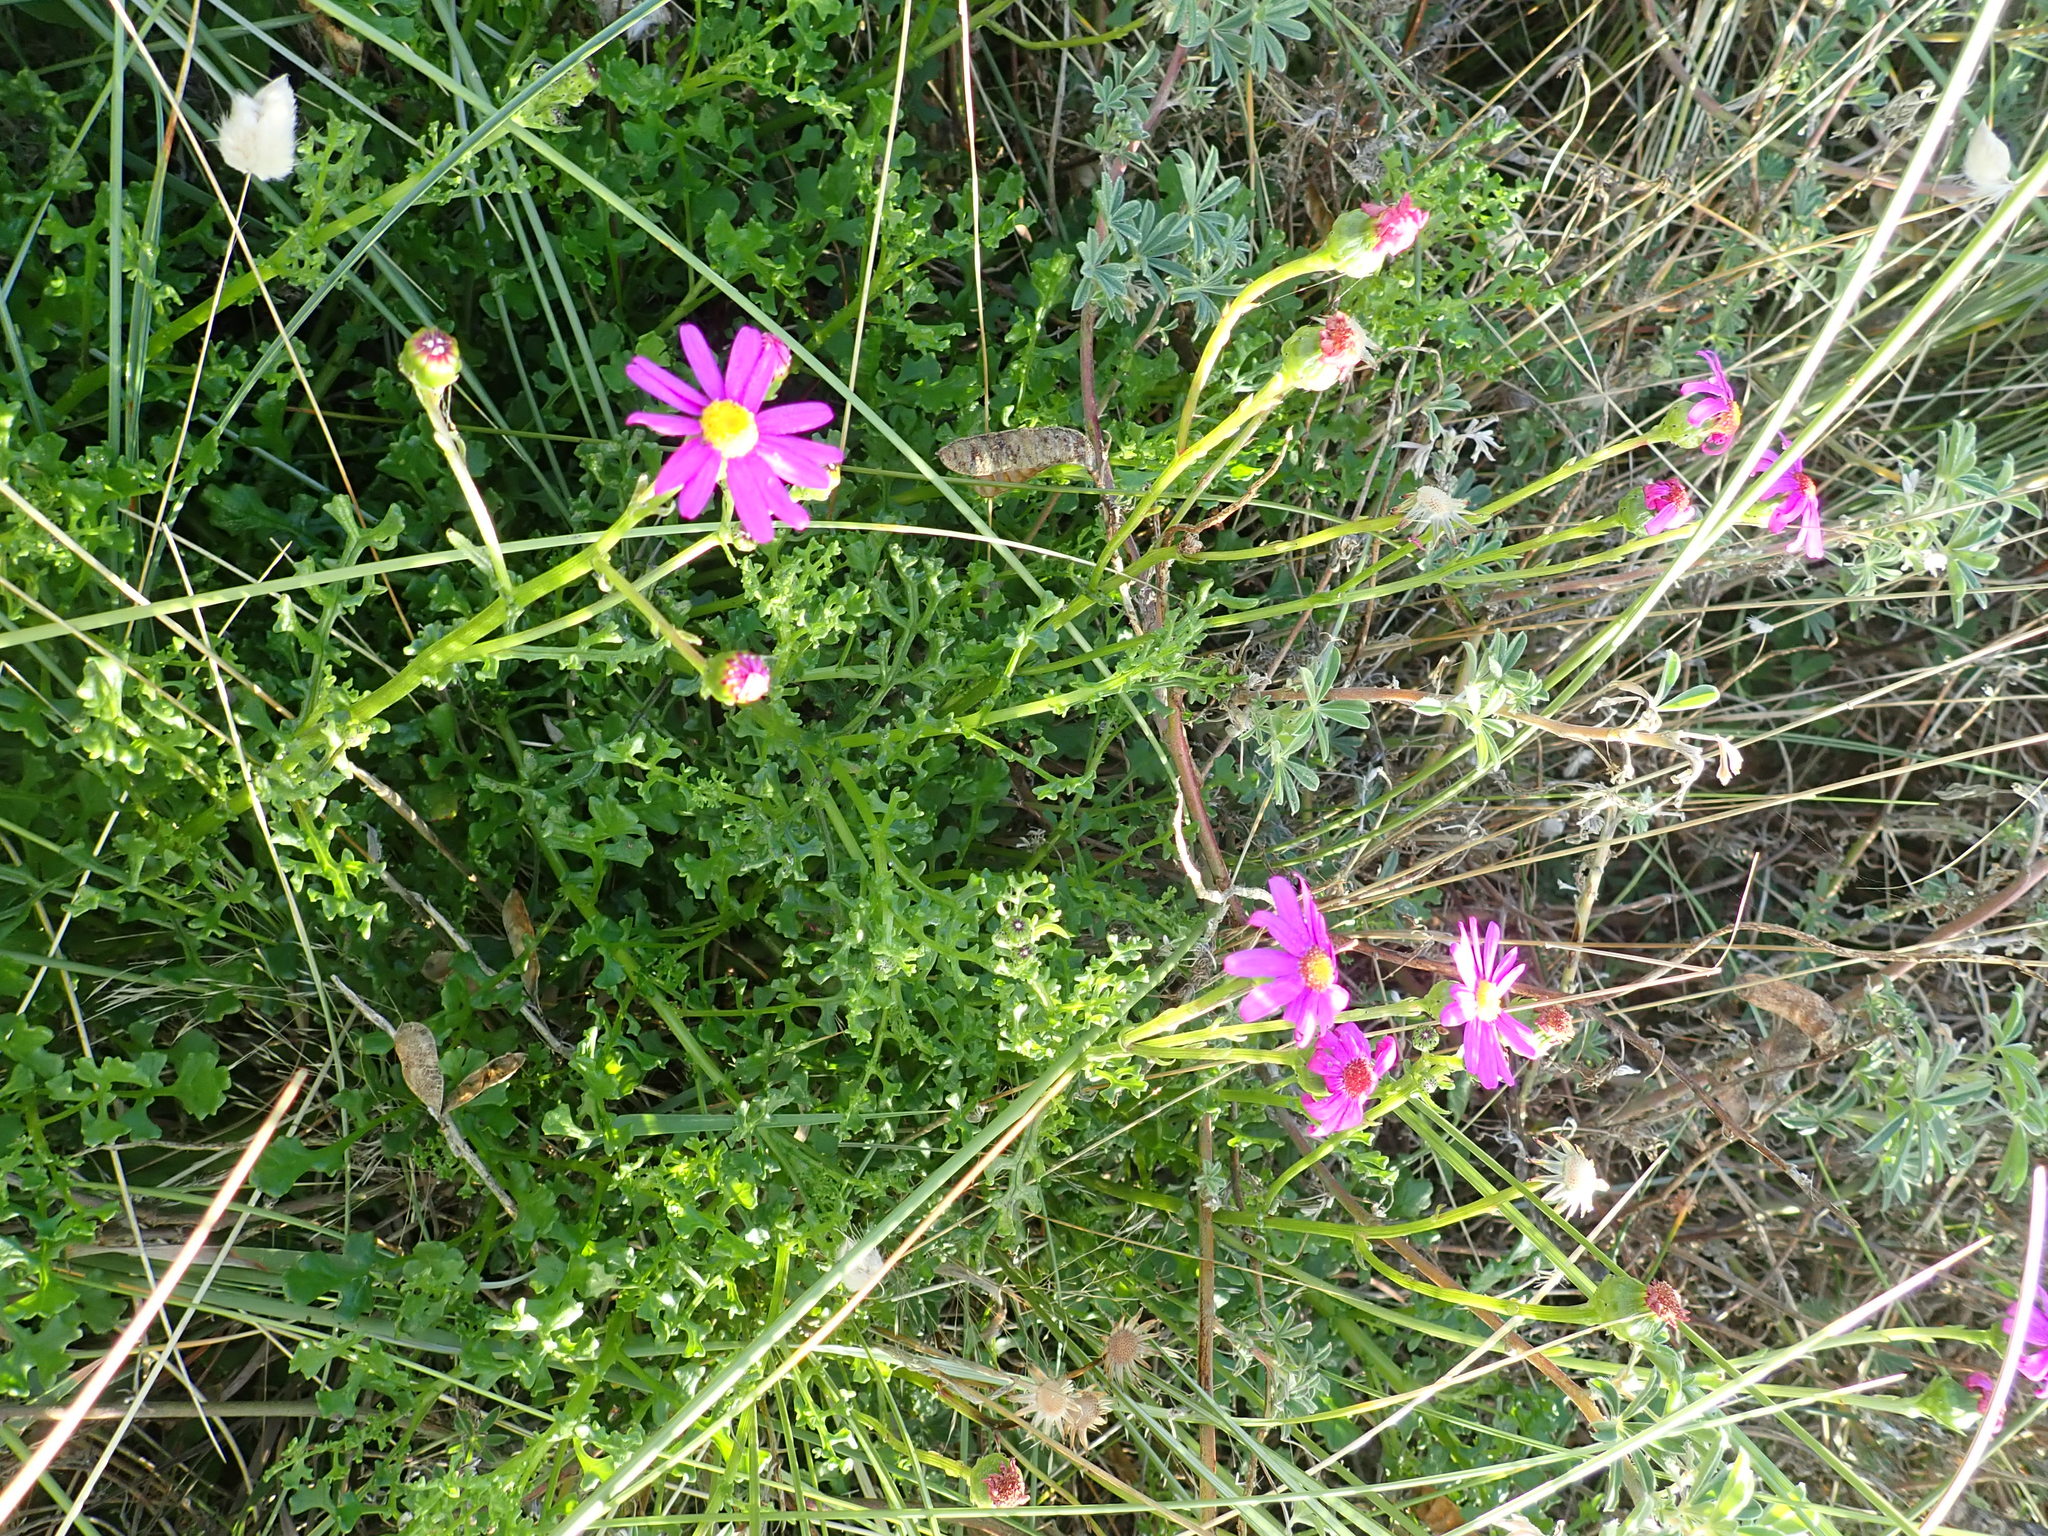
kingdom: Plantae
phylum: Tracheophyta
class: Magnoliopsida
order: Asterales
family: Asteraceae
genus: Senecio
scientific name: Senecio elegans
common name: Purple groundsel
